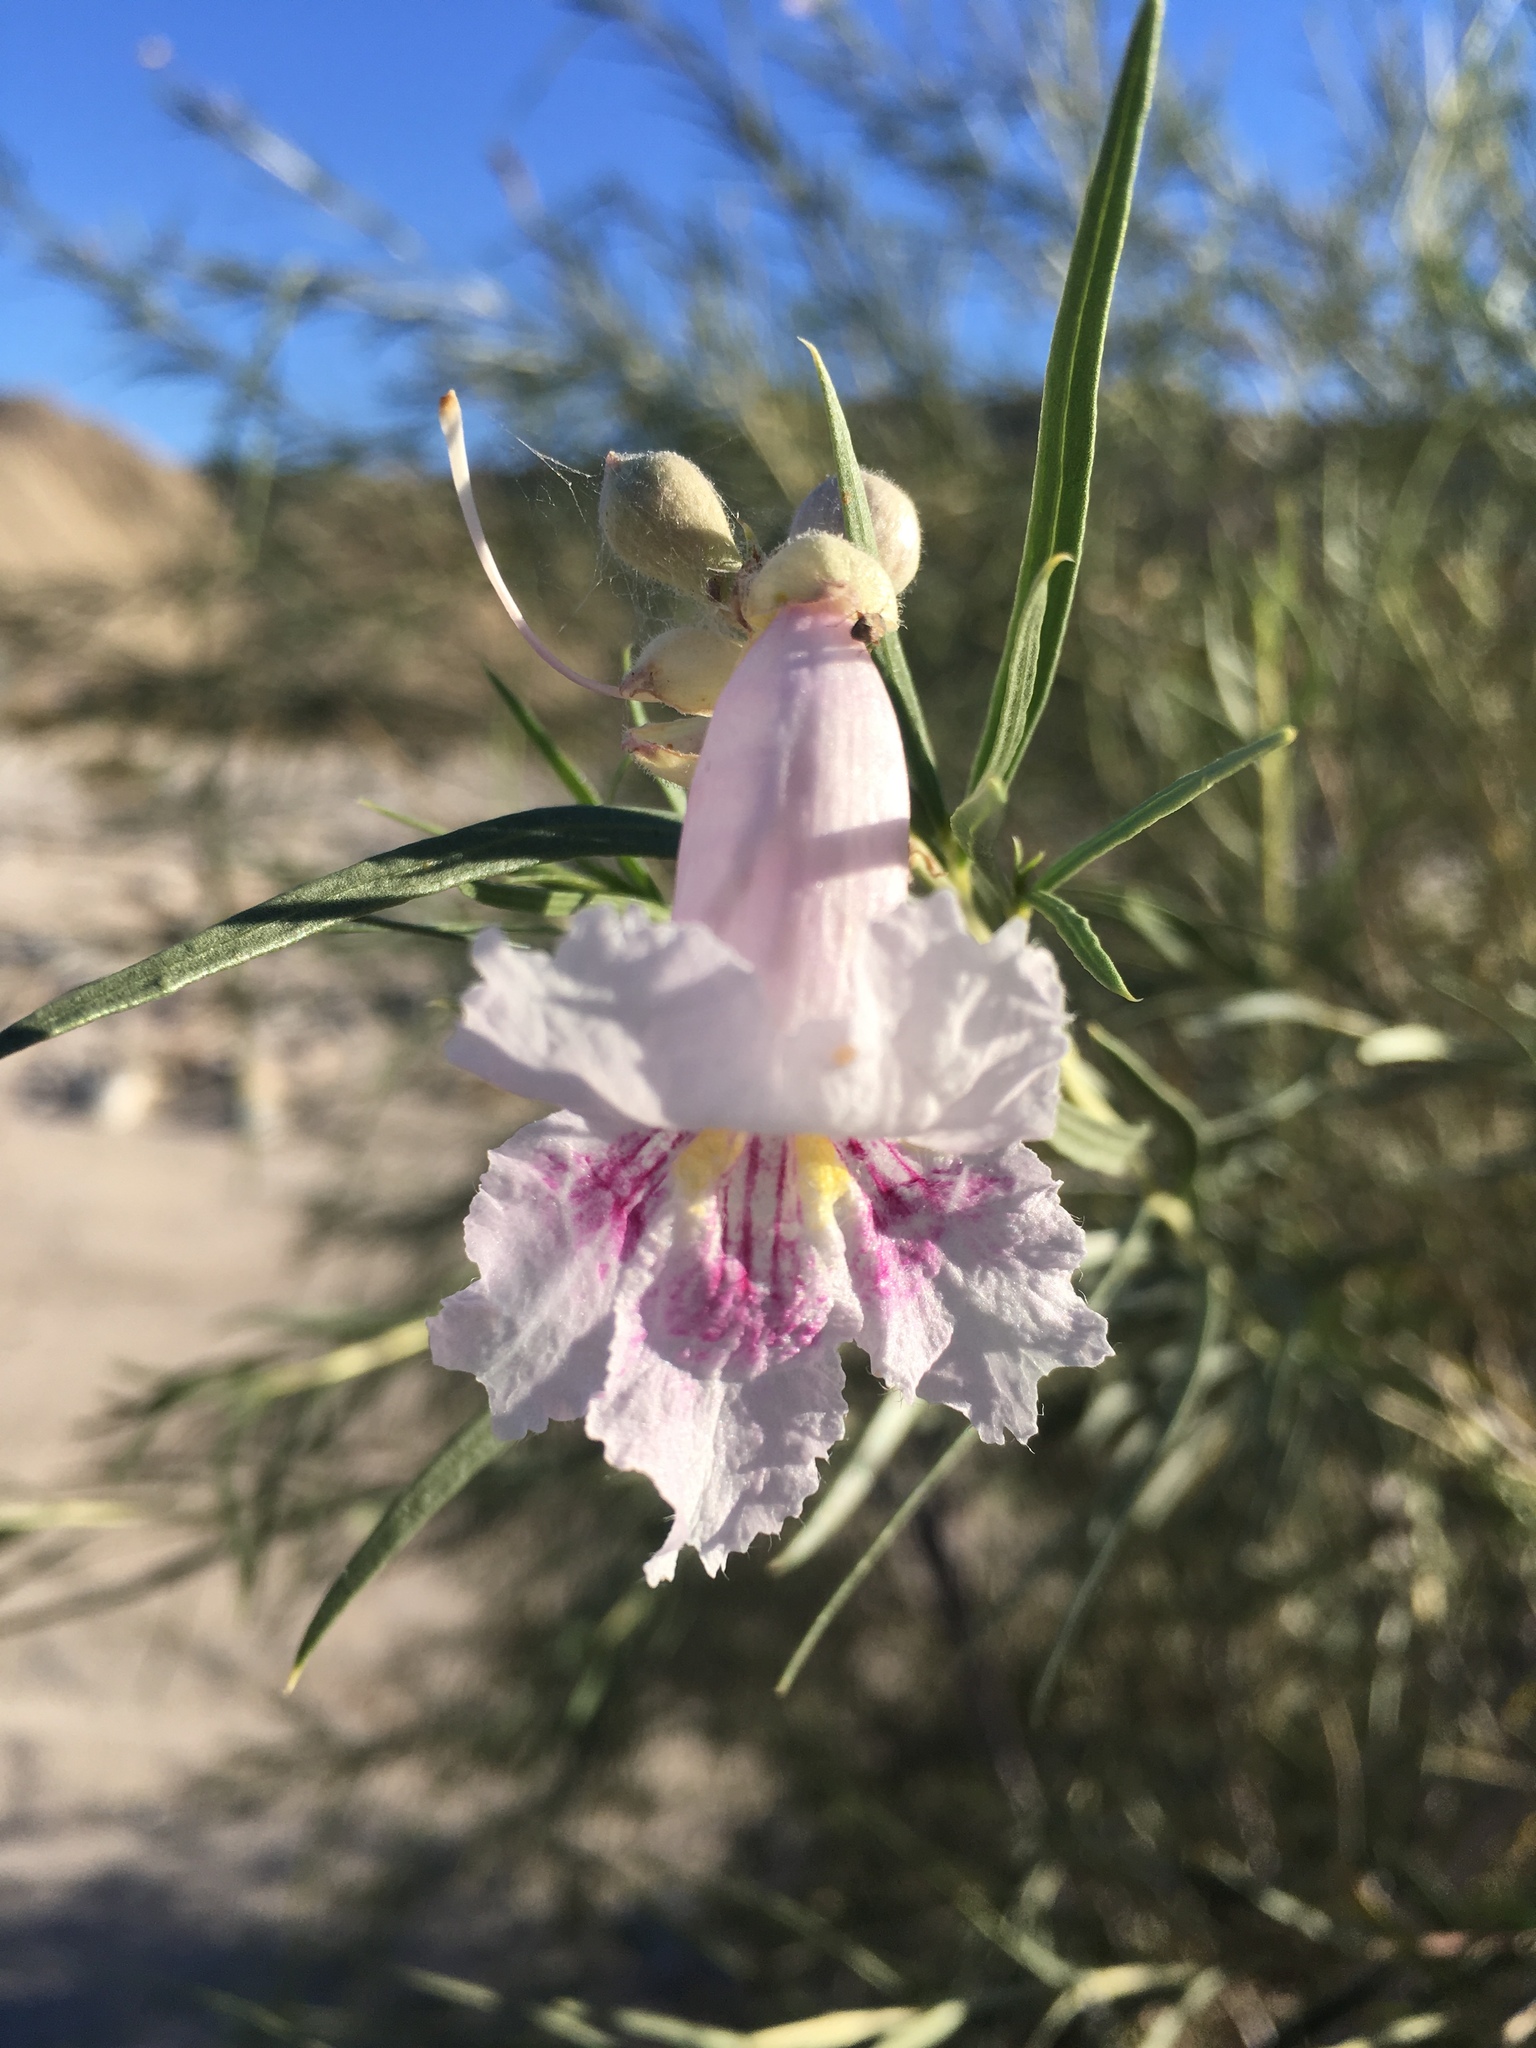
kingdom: Plantae
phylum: Tracheophyta
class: Magnoliopsida
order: Lamiales
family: Bignoniaceae
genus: Chilopsis
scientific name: Chilopsis linearis
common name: Desert-willow
